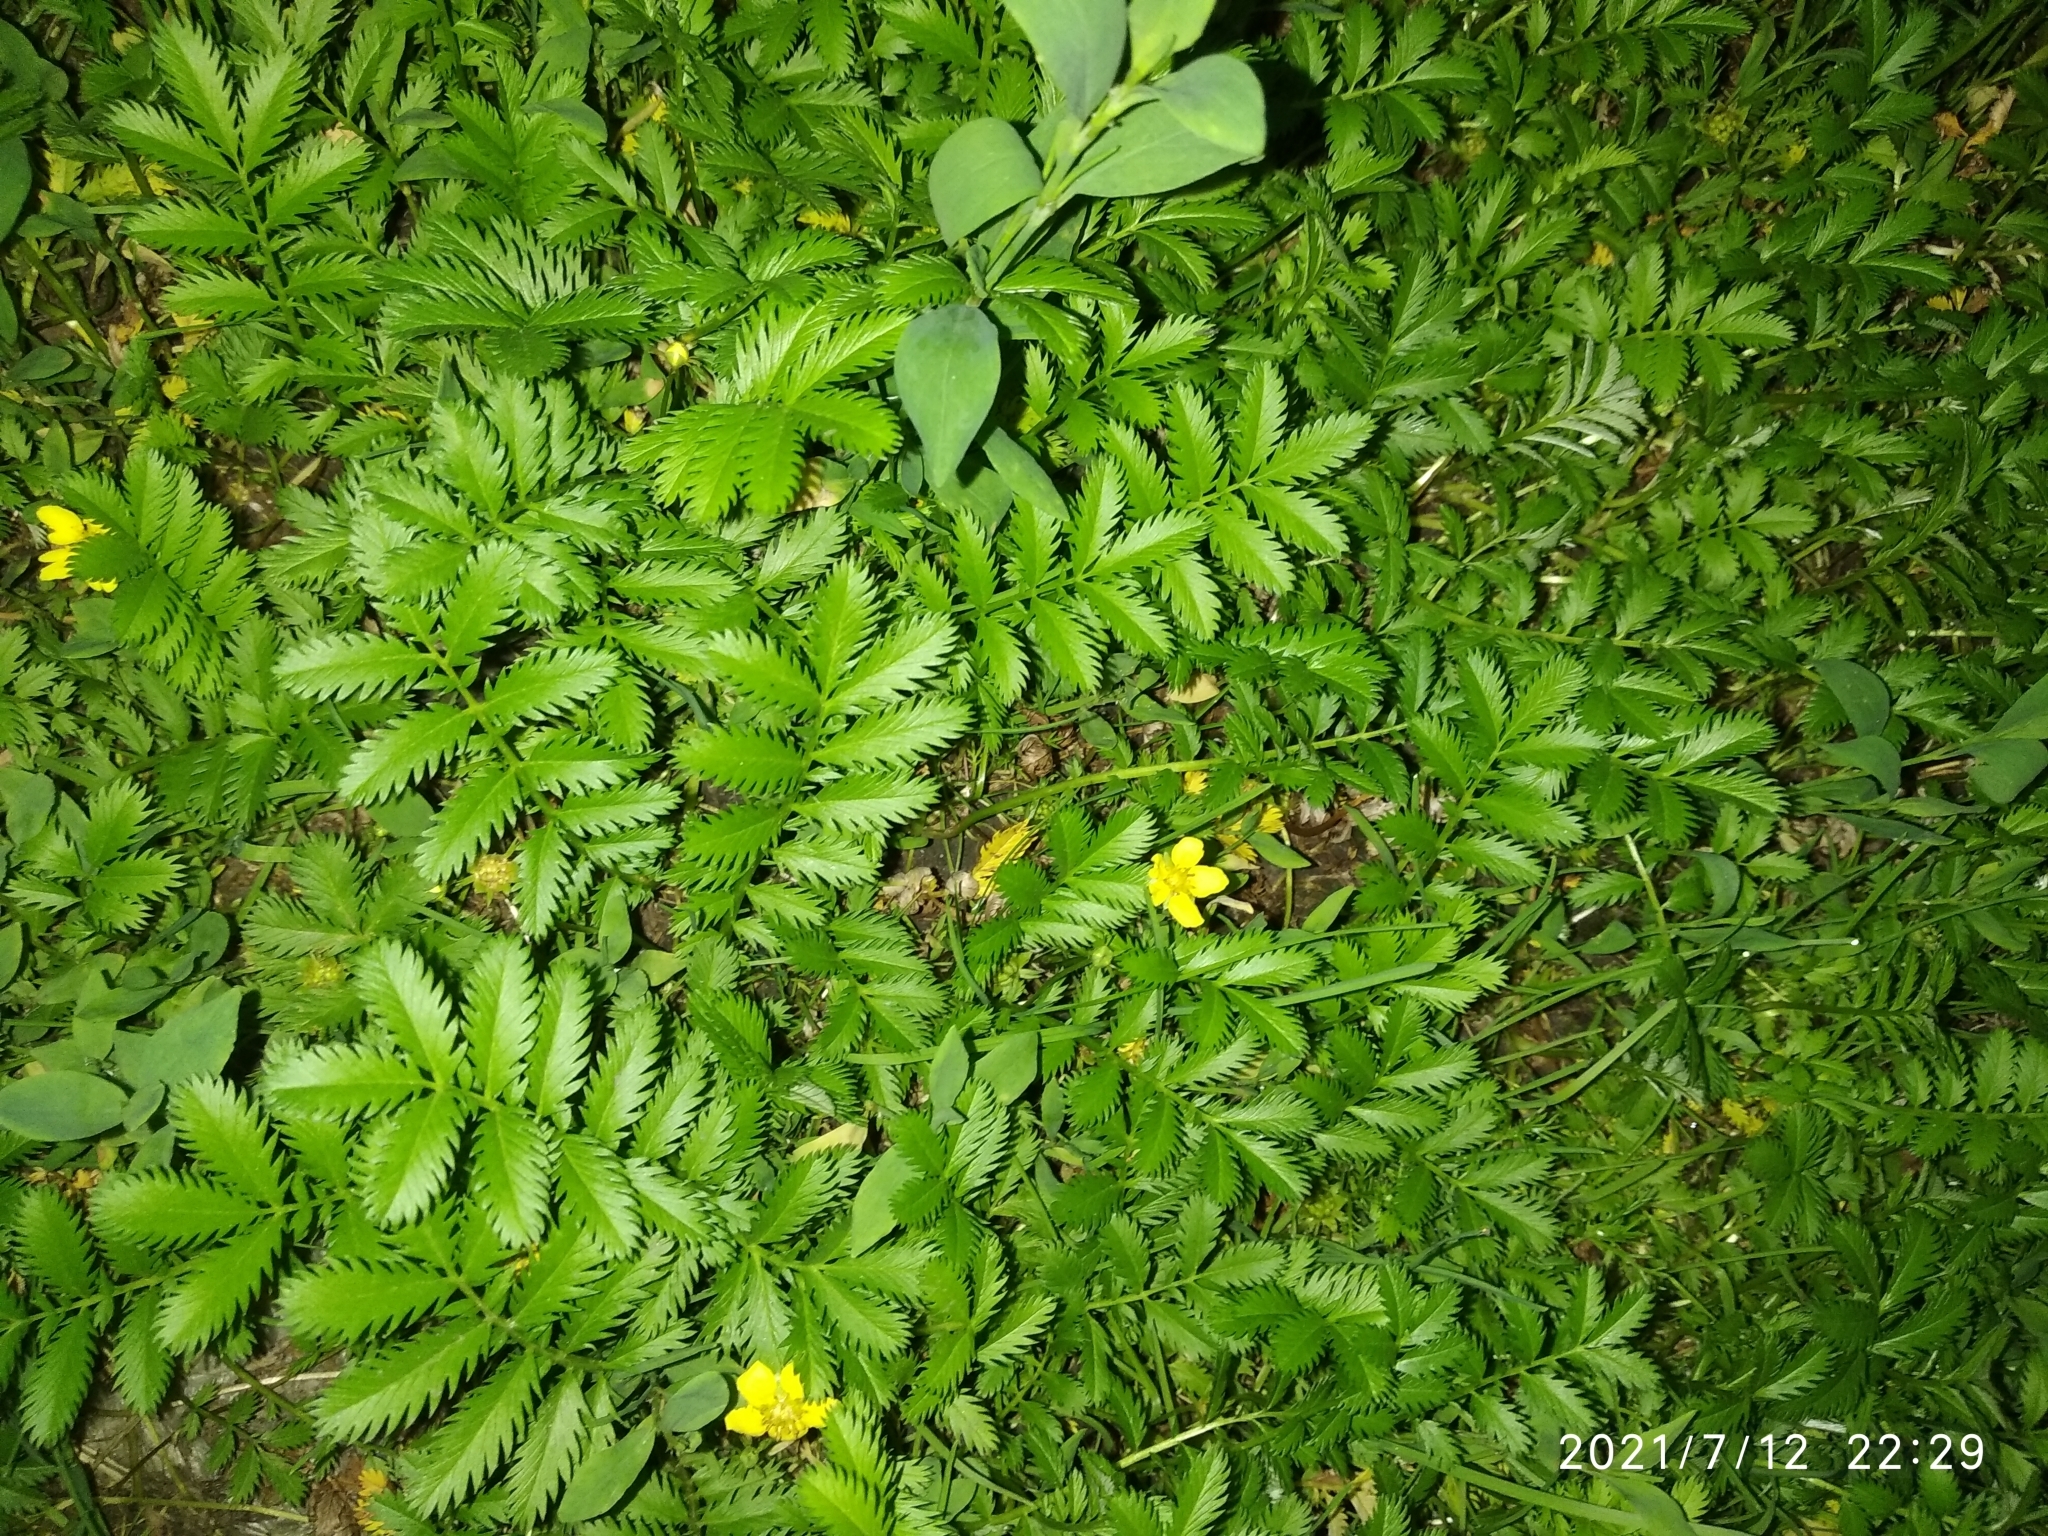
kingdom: Plantae
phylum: Tracheophyta
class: Magnoliopsida
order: Rosales
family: Rosaceae
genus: Argentina
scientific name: Argentina anserina
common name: Common silverweed
